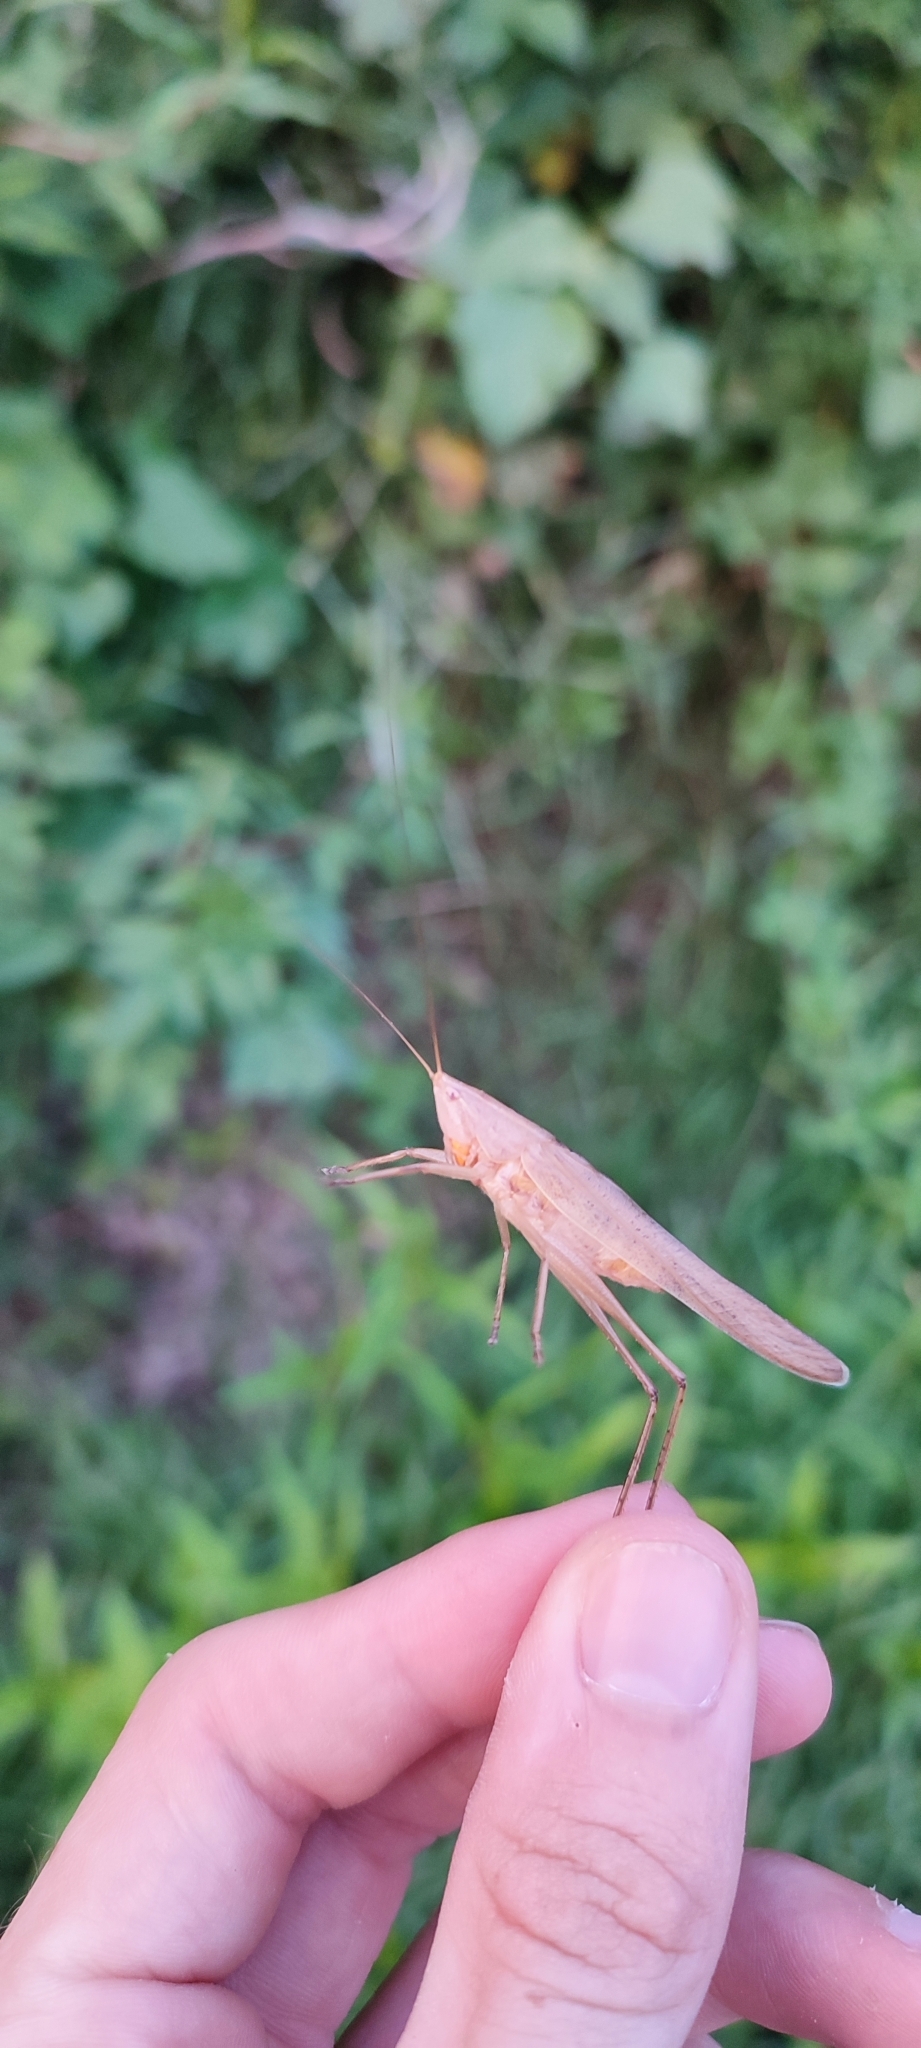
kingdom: Animalia
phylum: Arthropoda
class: Insecta
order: Orthoptera
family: Tettigoniidae
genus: Ruspolia
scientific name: Ruspolia nitidula
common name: Large conehead
